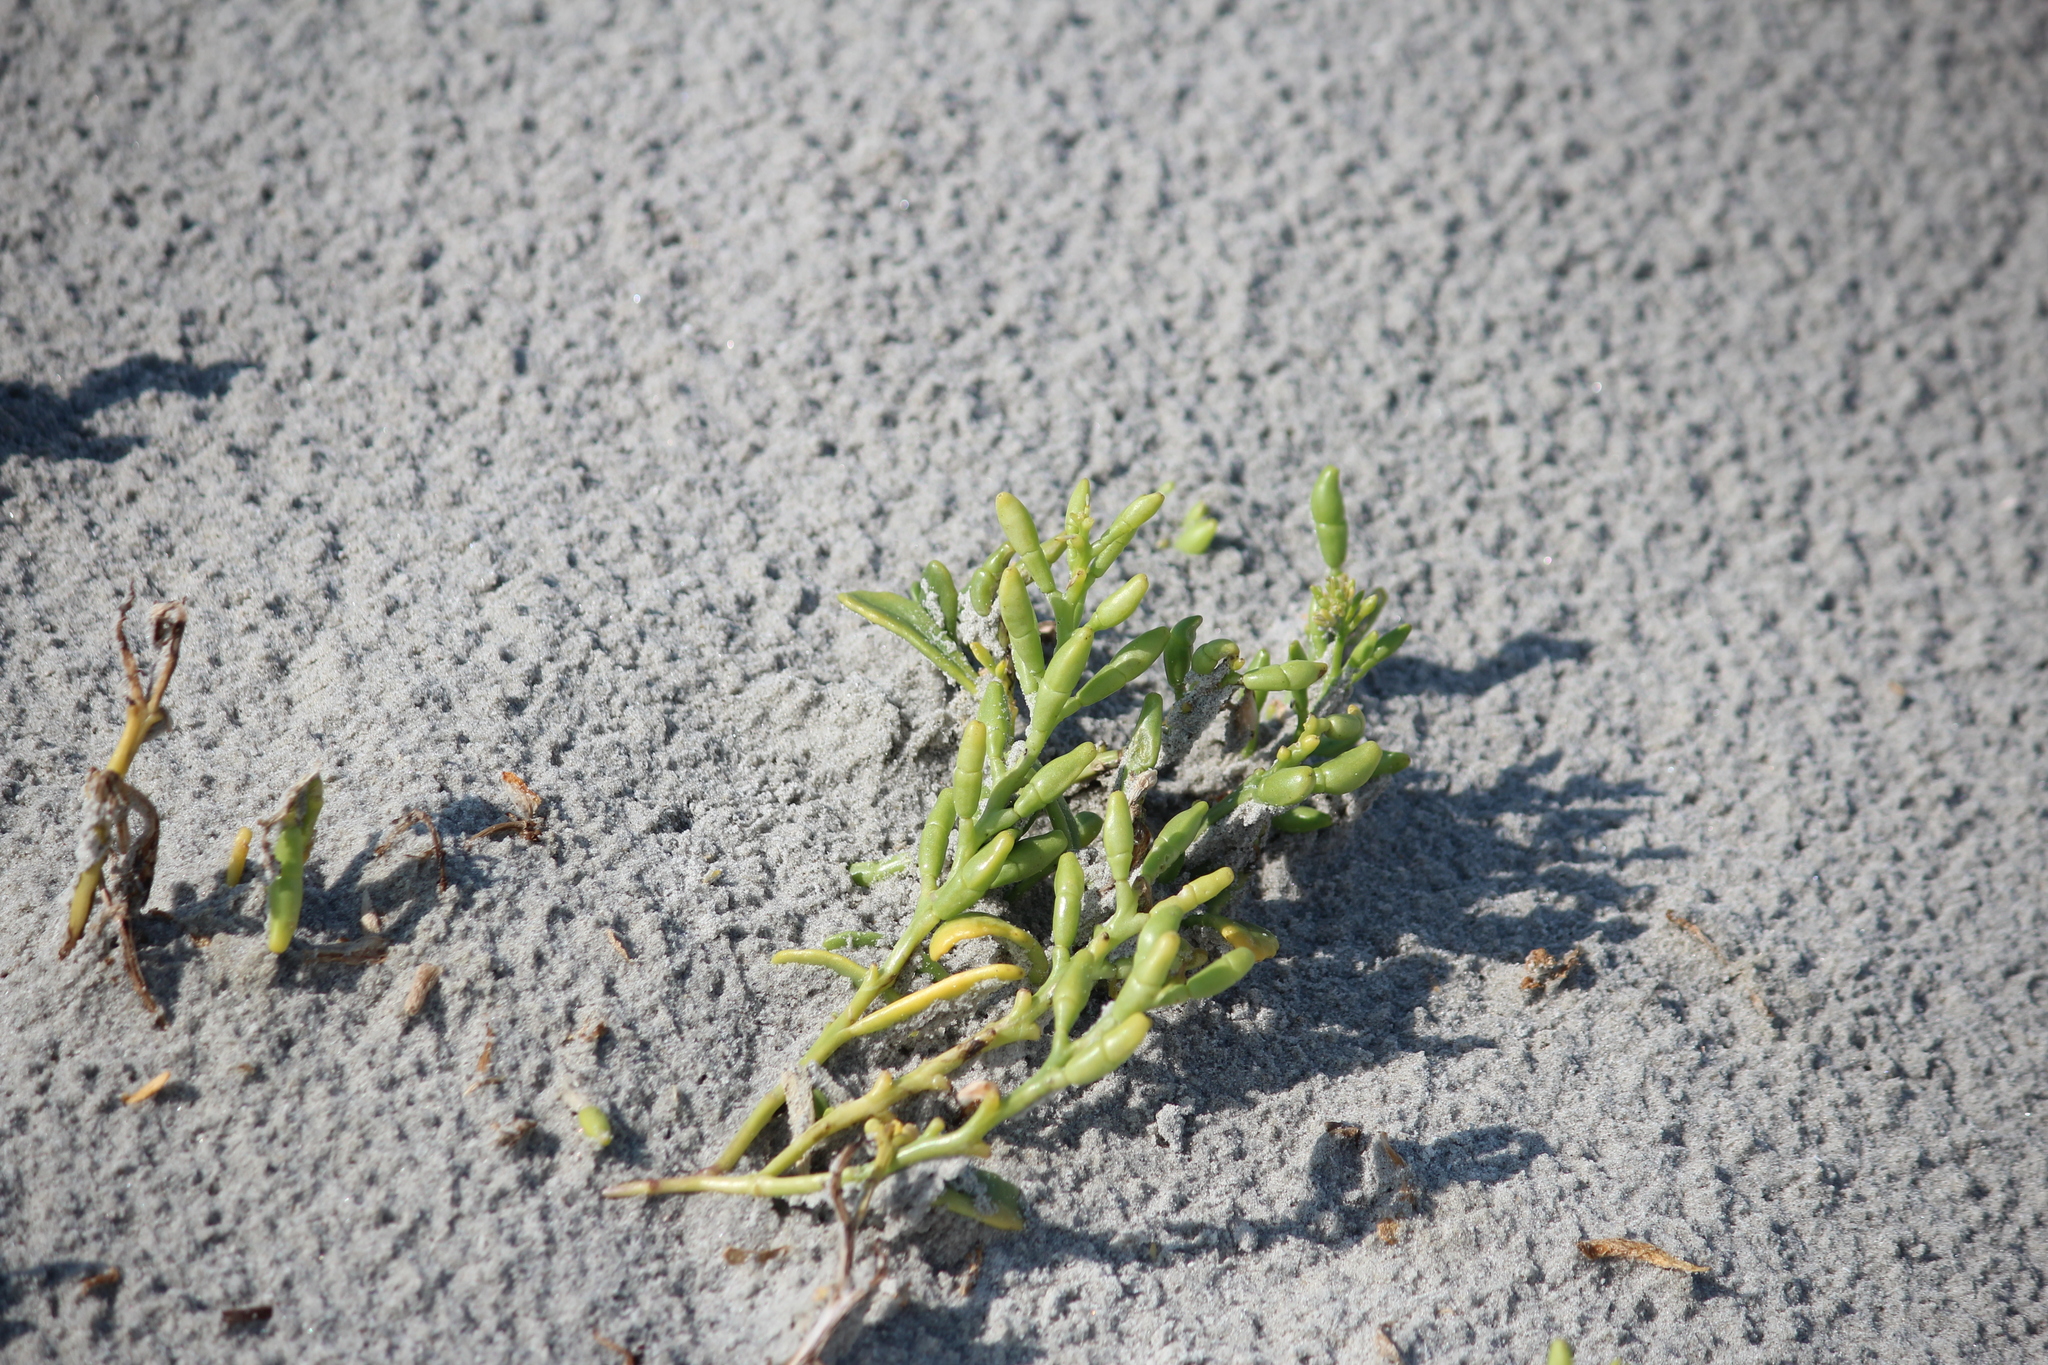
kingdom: Plantae
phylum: Tracheophyta
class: Magnoliopsida
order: Brassicales
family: Brassicaceae
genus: Cakile
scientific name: Cakile edentula
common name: American sea rocket
